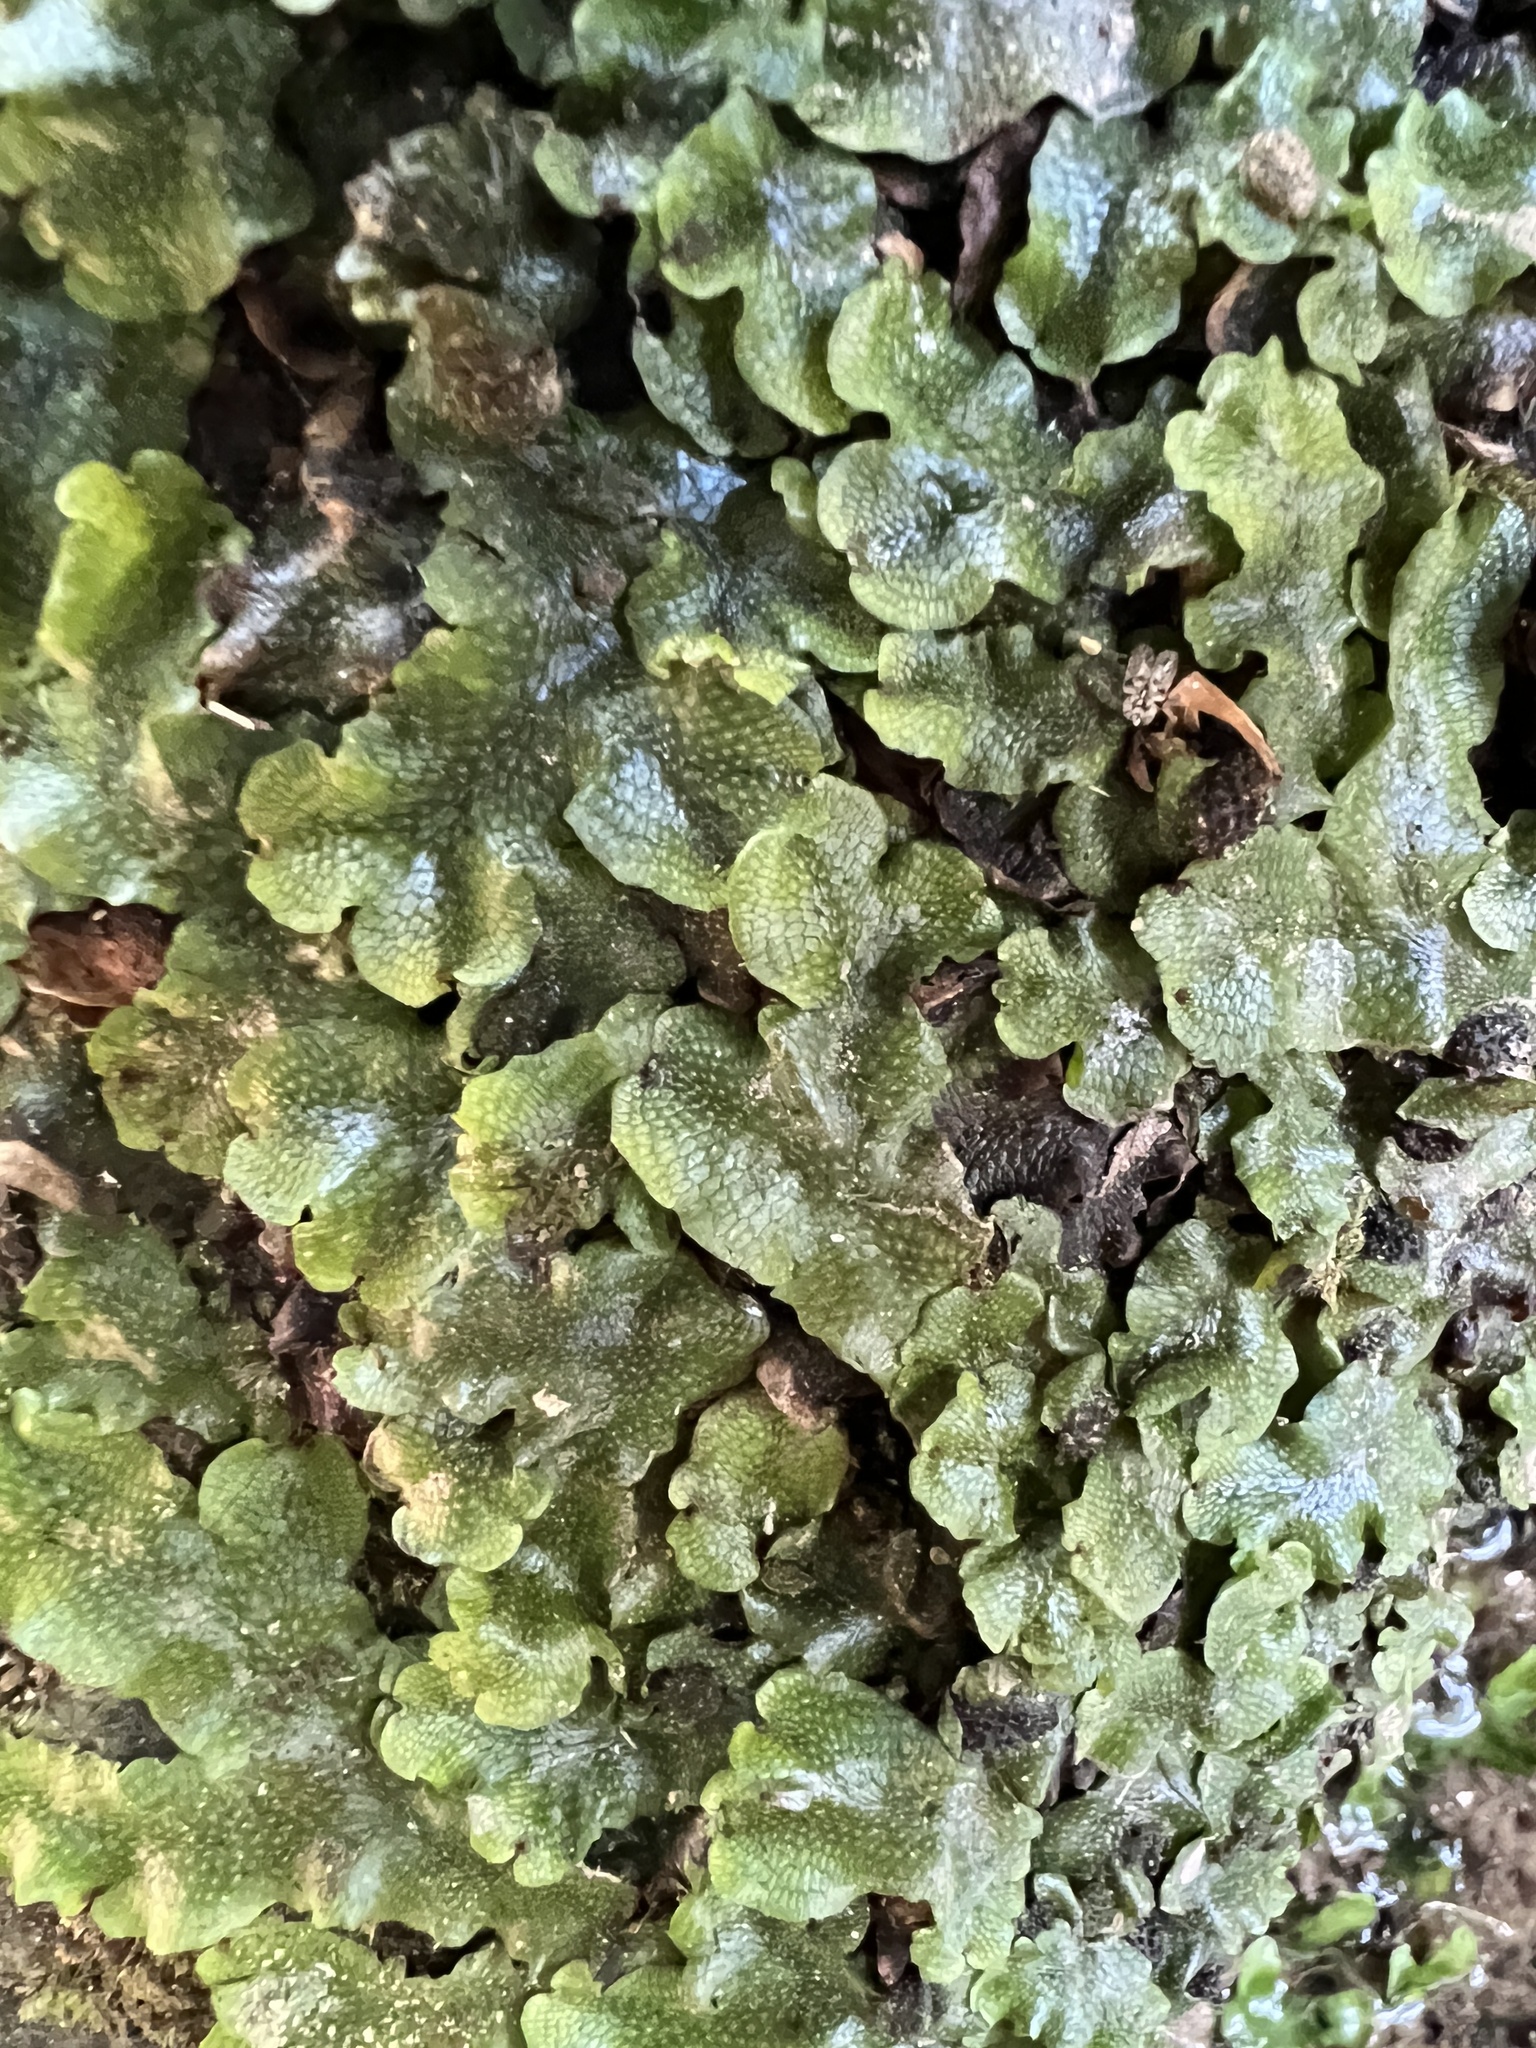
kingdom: Plantae
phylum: Marchantiophyta
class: Marchantiopsida
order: Marchantiales
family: Conocephalaceae
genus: Conocephalum
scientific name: Conocephalum salebrosum
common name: Cat-tongue liverwort
